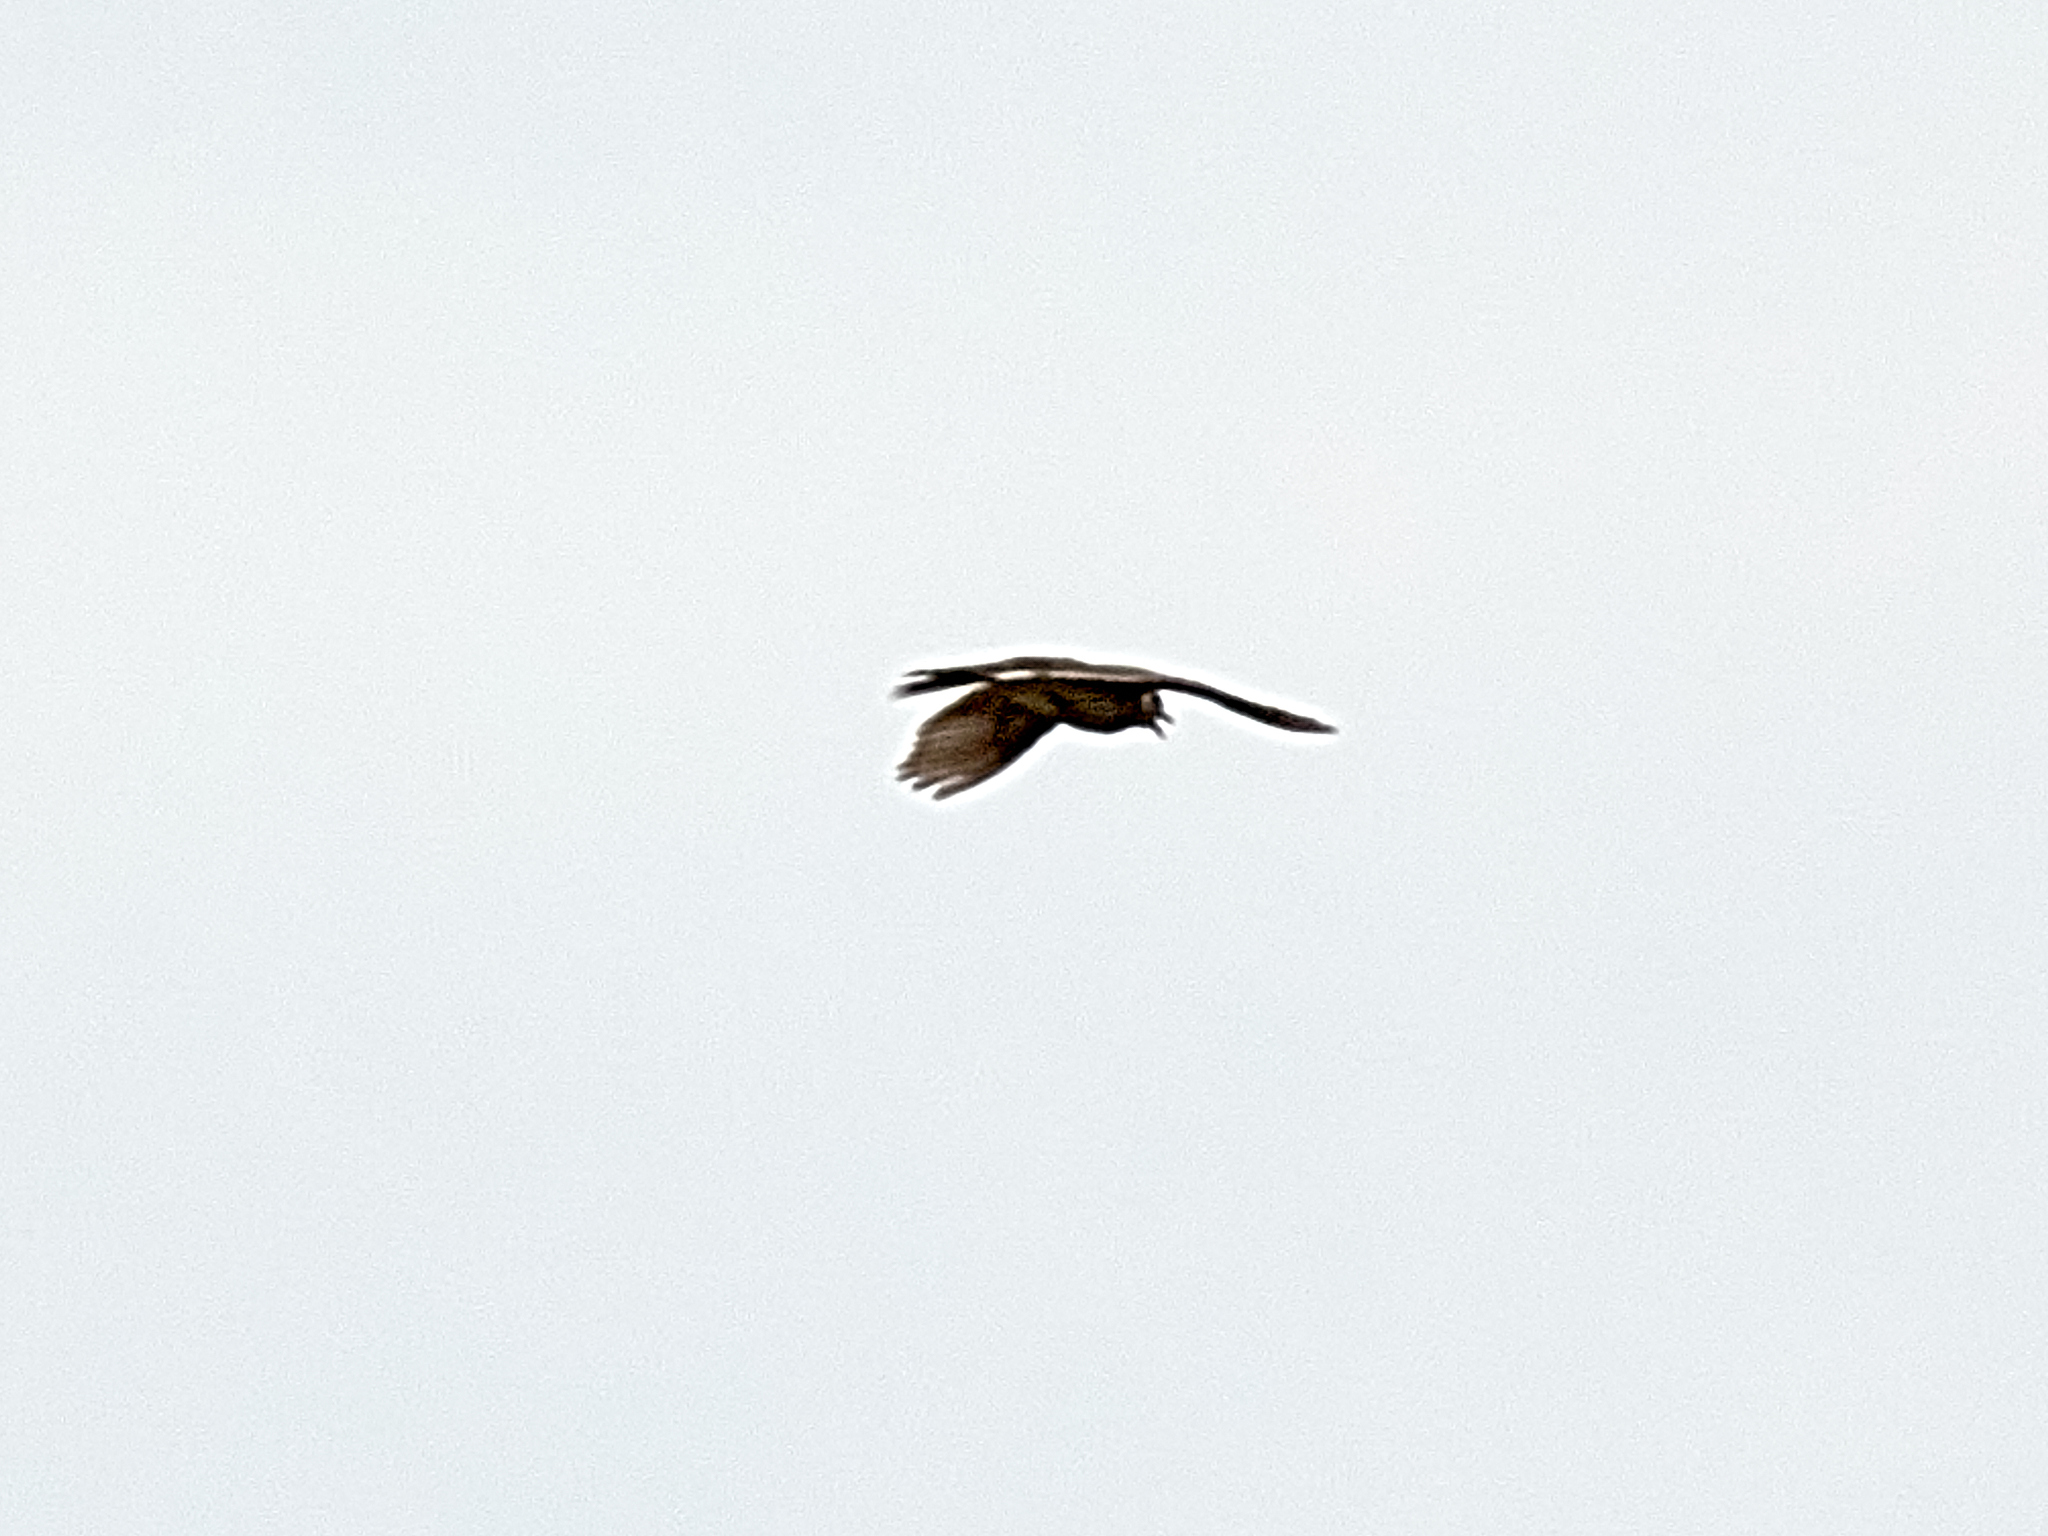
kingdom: Animalia
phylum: Chordata
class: Aves
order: Passeriformes
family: Alaudidae
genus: Alauda
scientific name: Alauda arvensis
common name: Eurasian skylark
